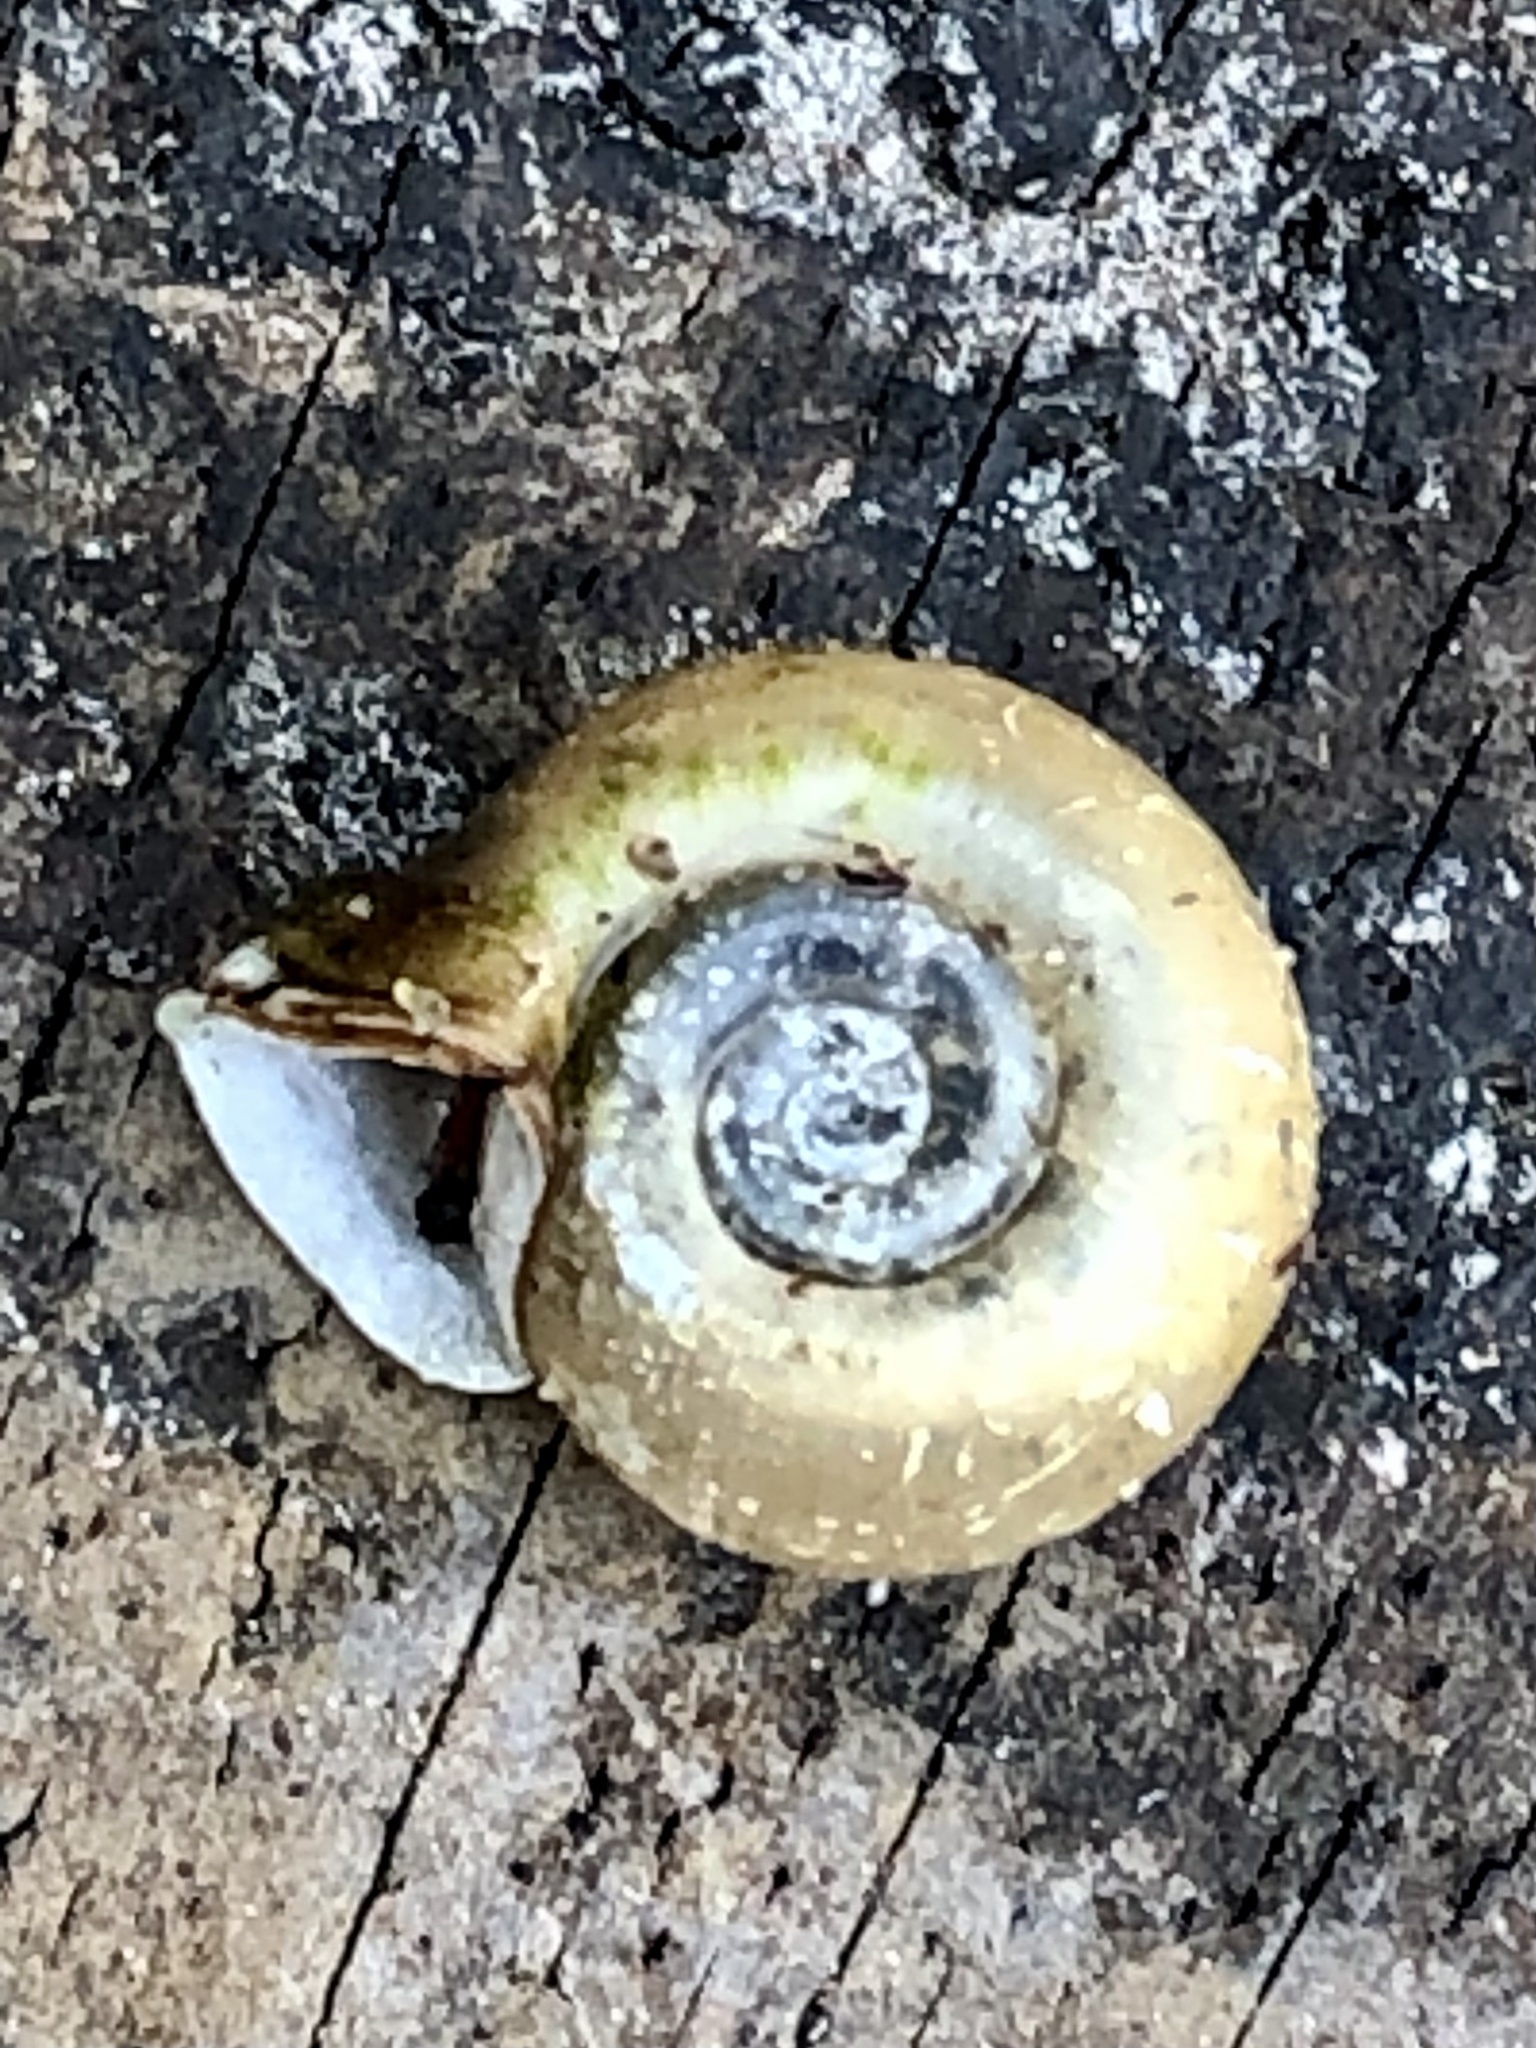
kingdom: Animalia
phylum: Mollusca
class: Gastropoda
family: Planorbidae
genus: Planorbella
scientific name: Planorbella campanulata
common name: Bellmouth ramshorn
